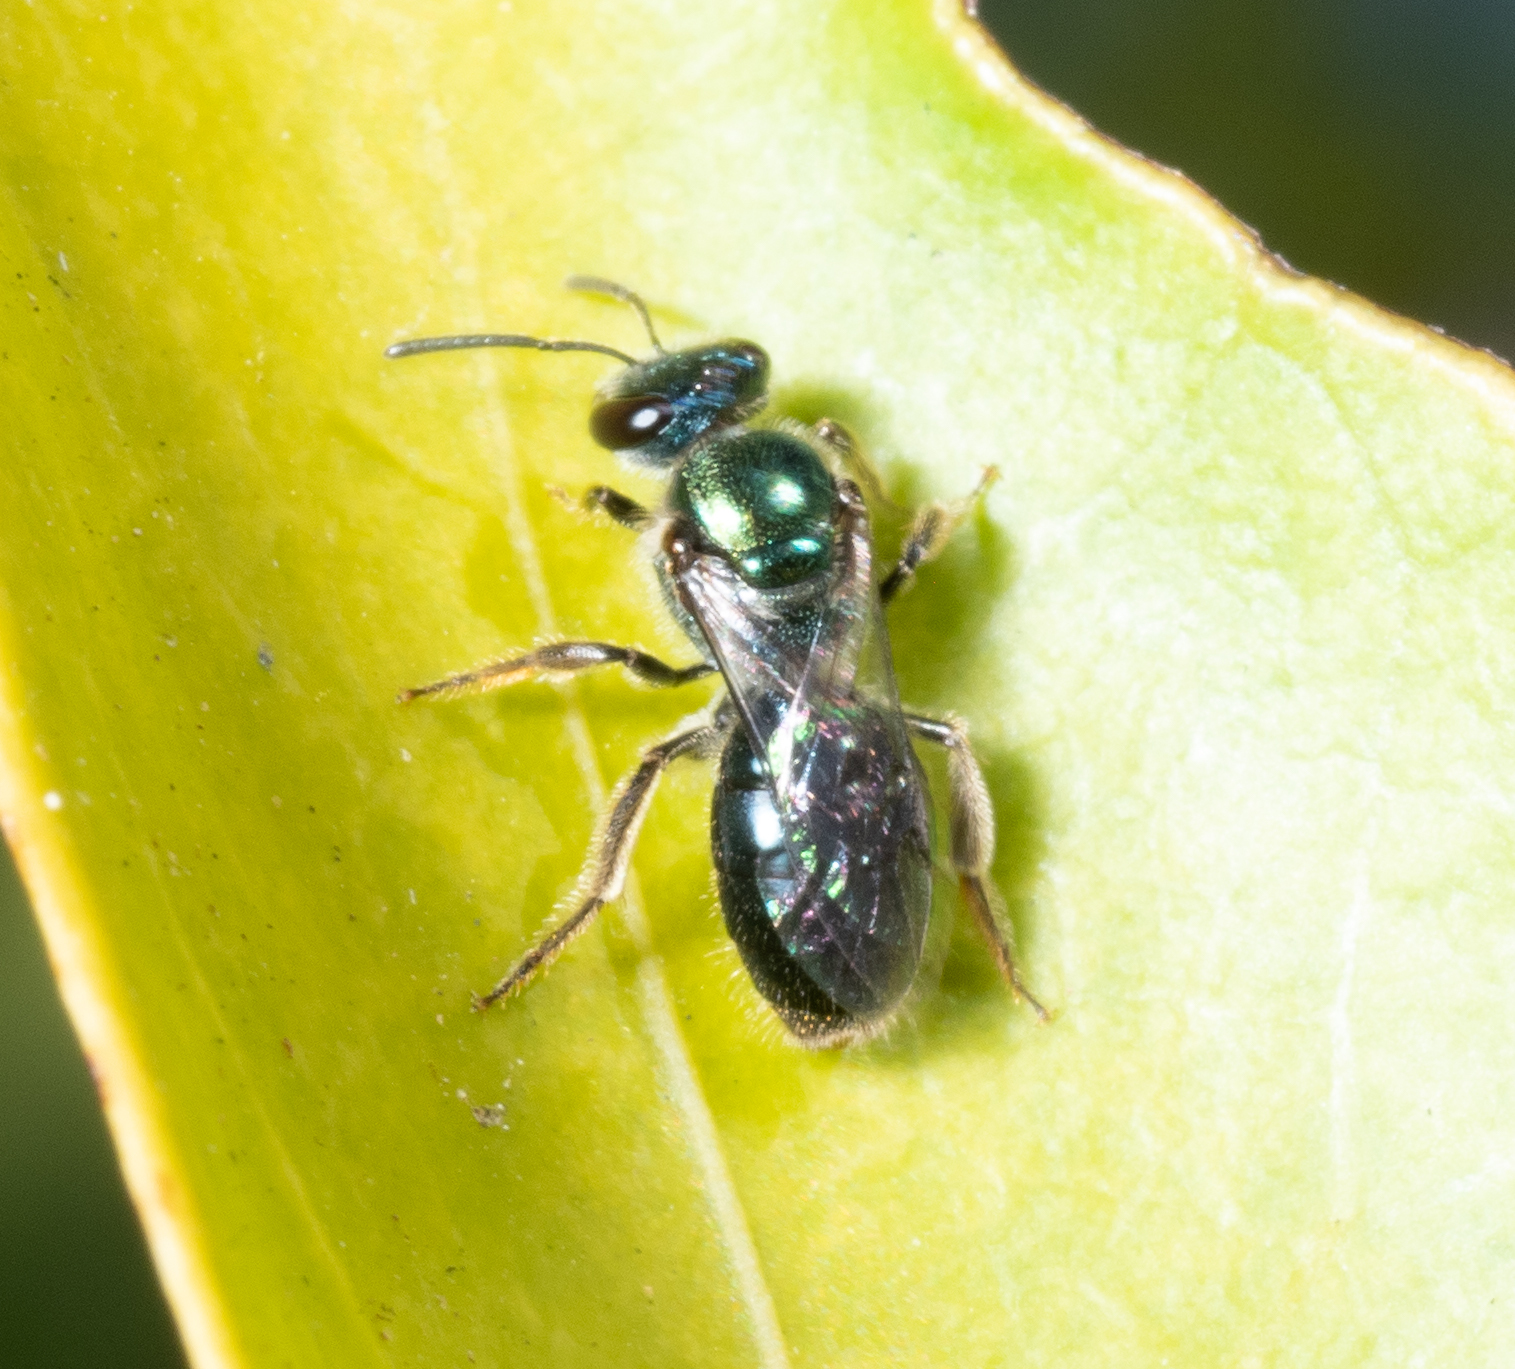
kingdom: Animalia
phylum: Arthropoda
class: Insecta
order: Hymenoptera
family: Halictidae
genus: Lasioglossum
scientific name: Lasioglossum
